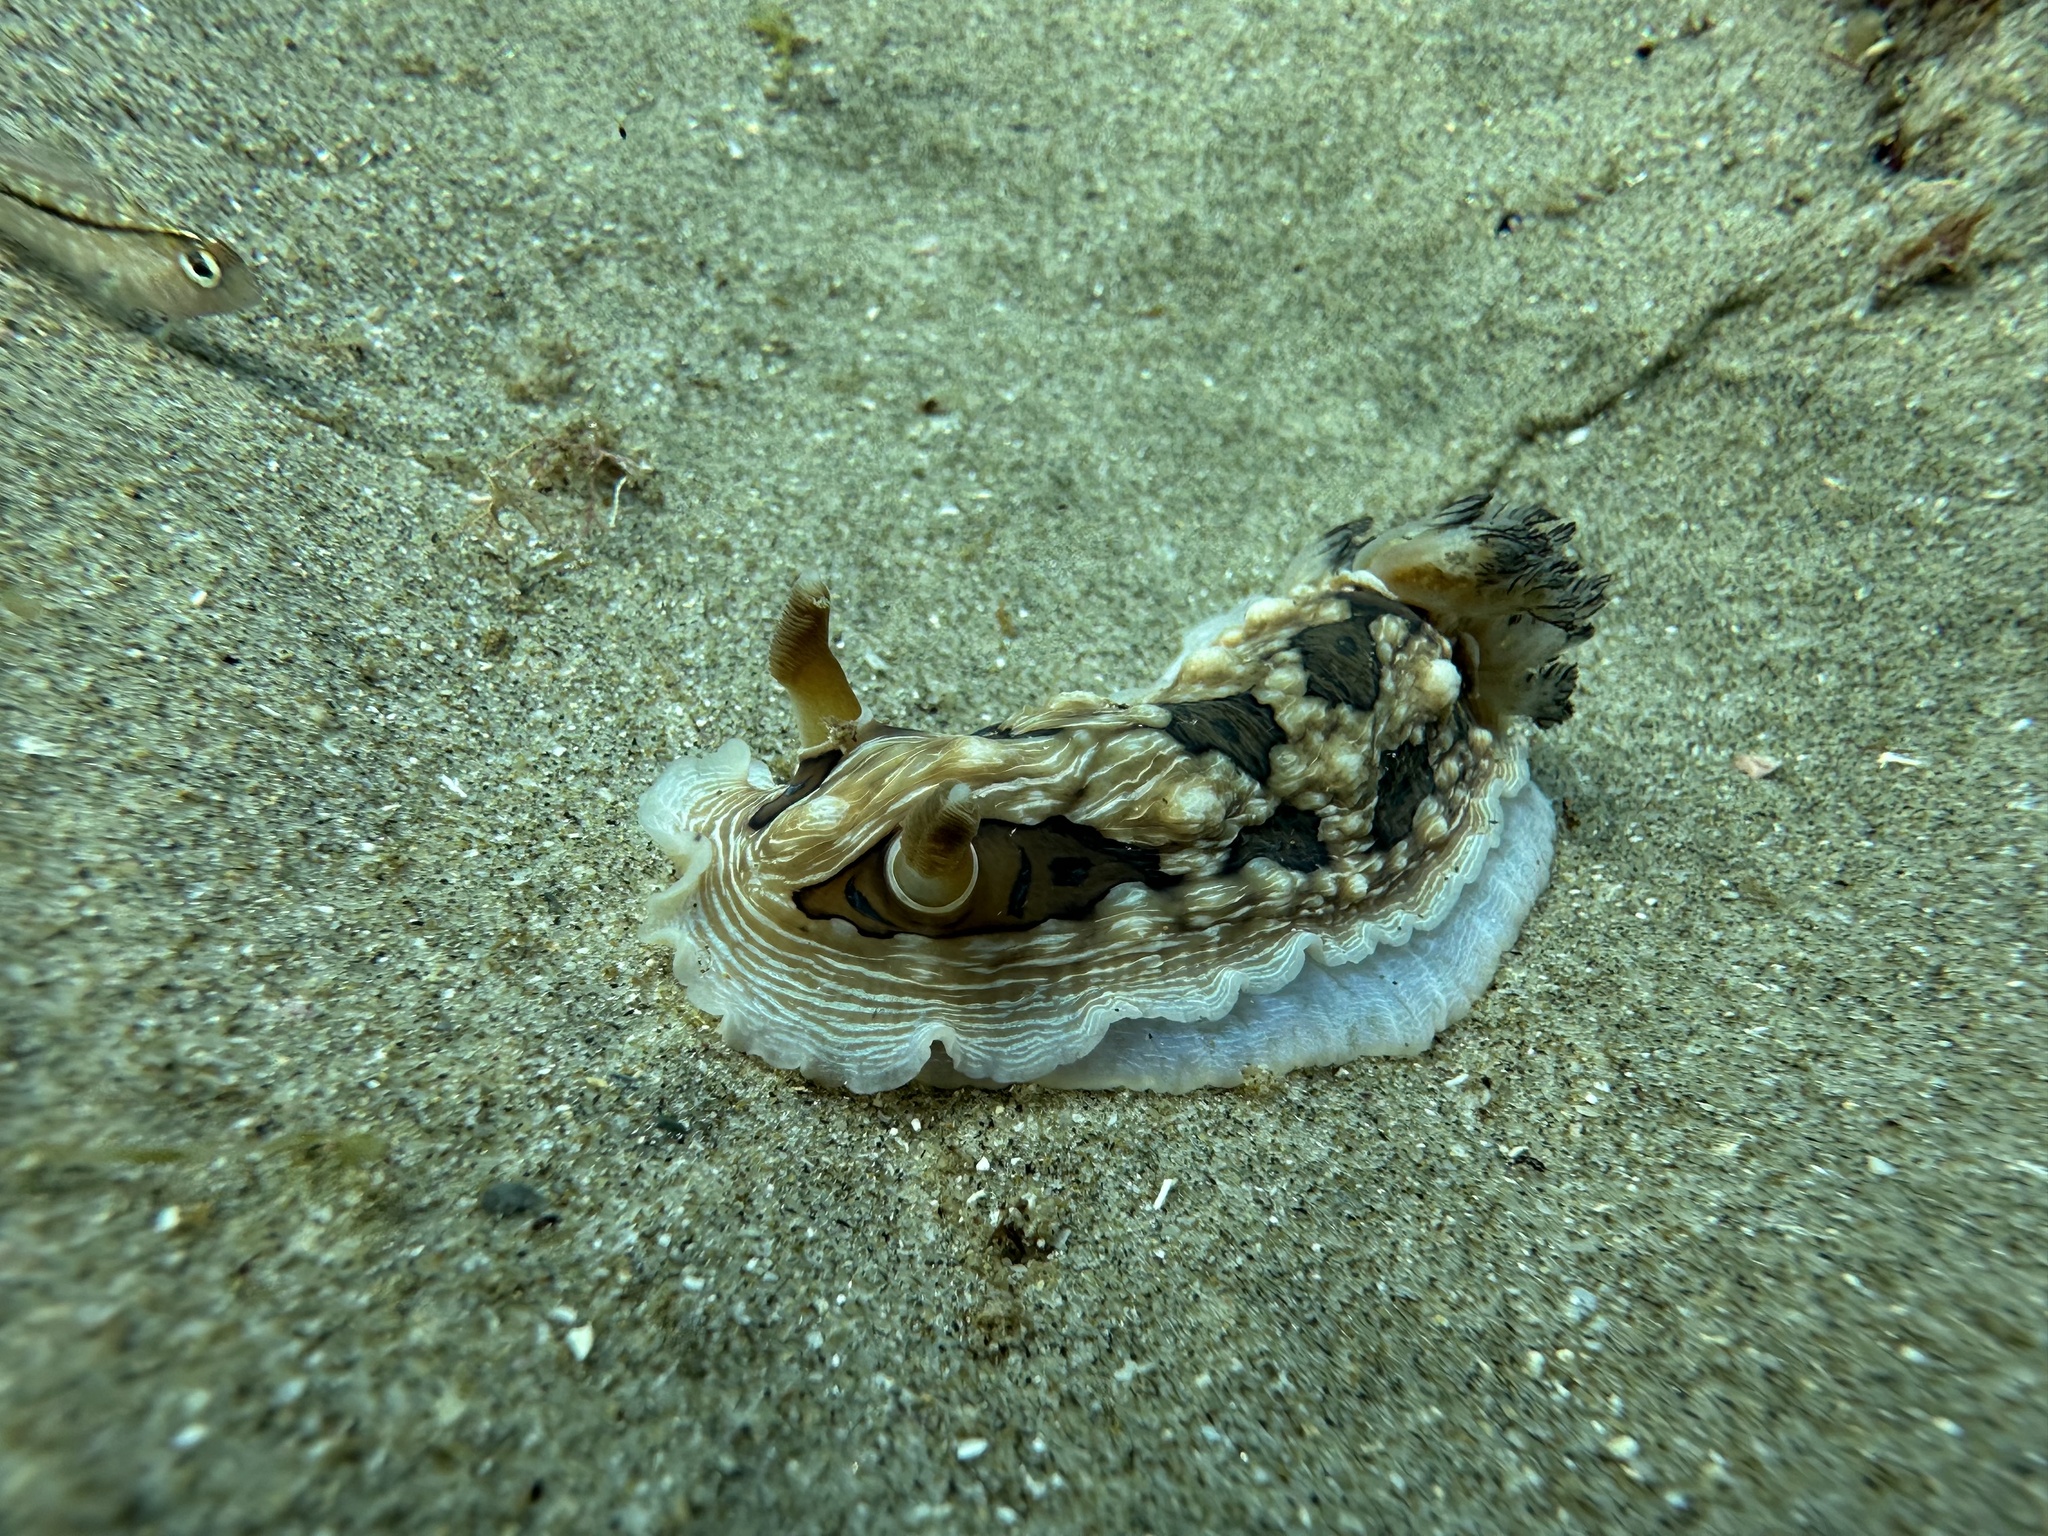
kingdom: Animalia
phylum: Mollusca
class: Gastropoda
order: Nudibranchia
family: Dendrodorididae
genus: Dendrodoris
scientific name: Dendrodoris krusensternii
